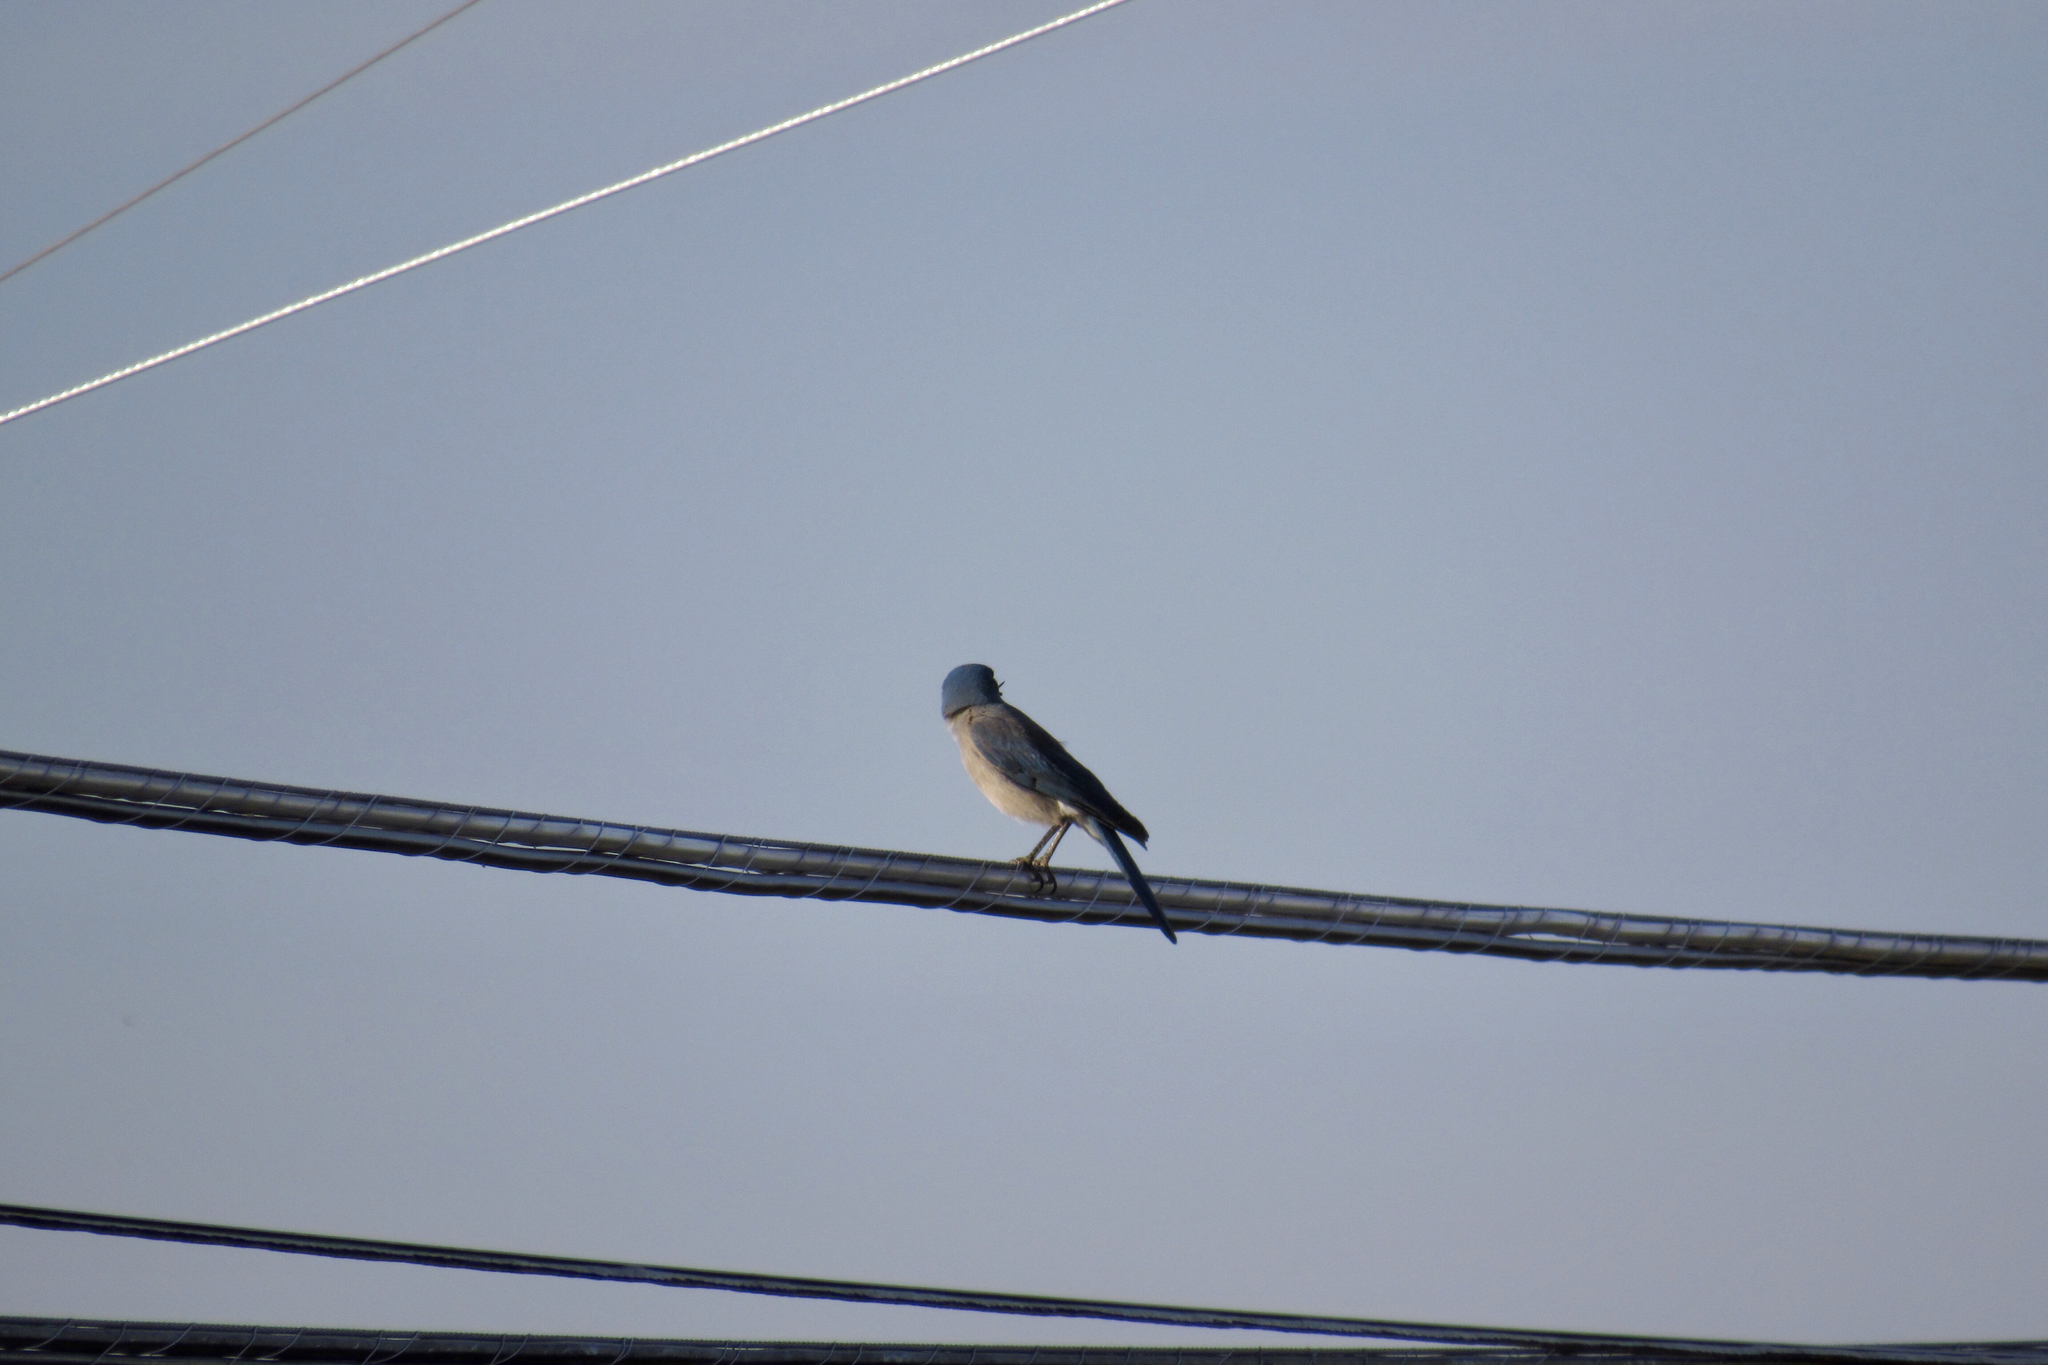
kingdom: Animalia
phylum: Chordata
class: Aves
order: Passeriformes
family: Corvidae
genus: Aphelocoma
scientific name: Aphelocoma wollweberi
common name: Mexican jay
